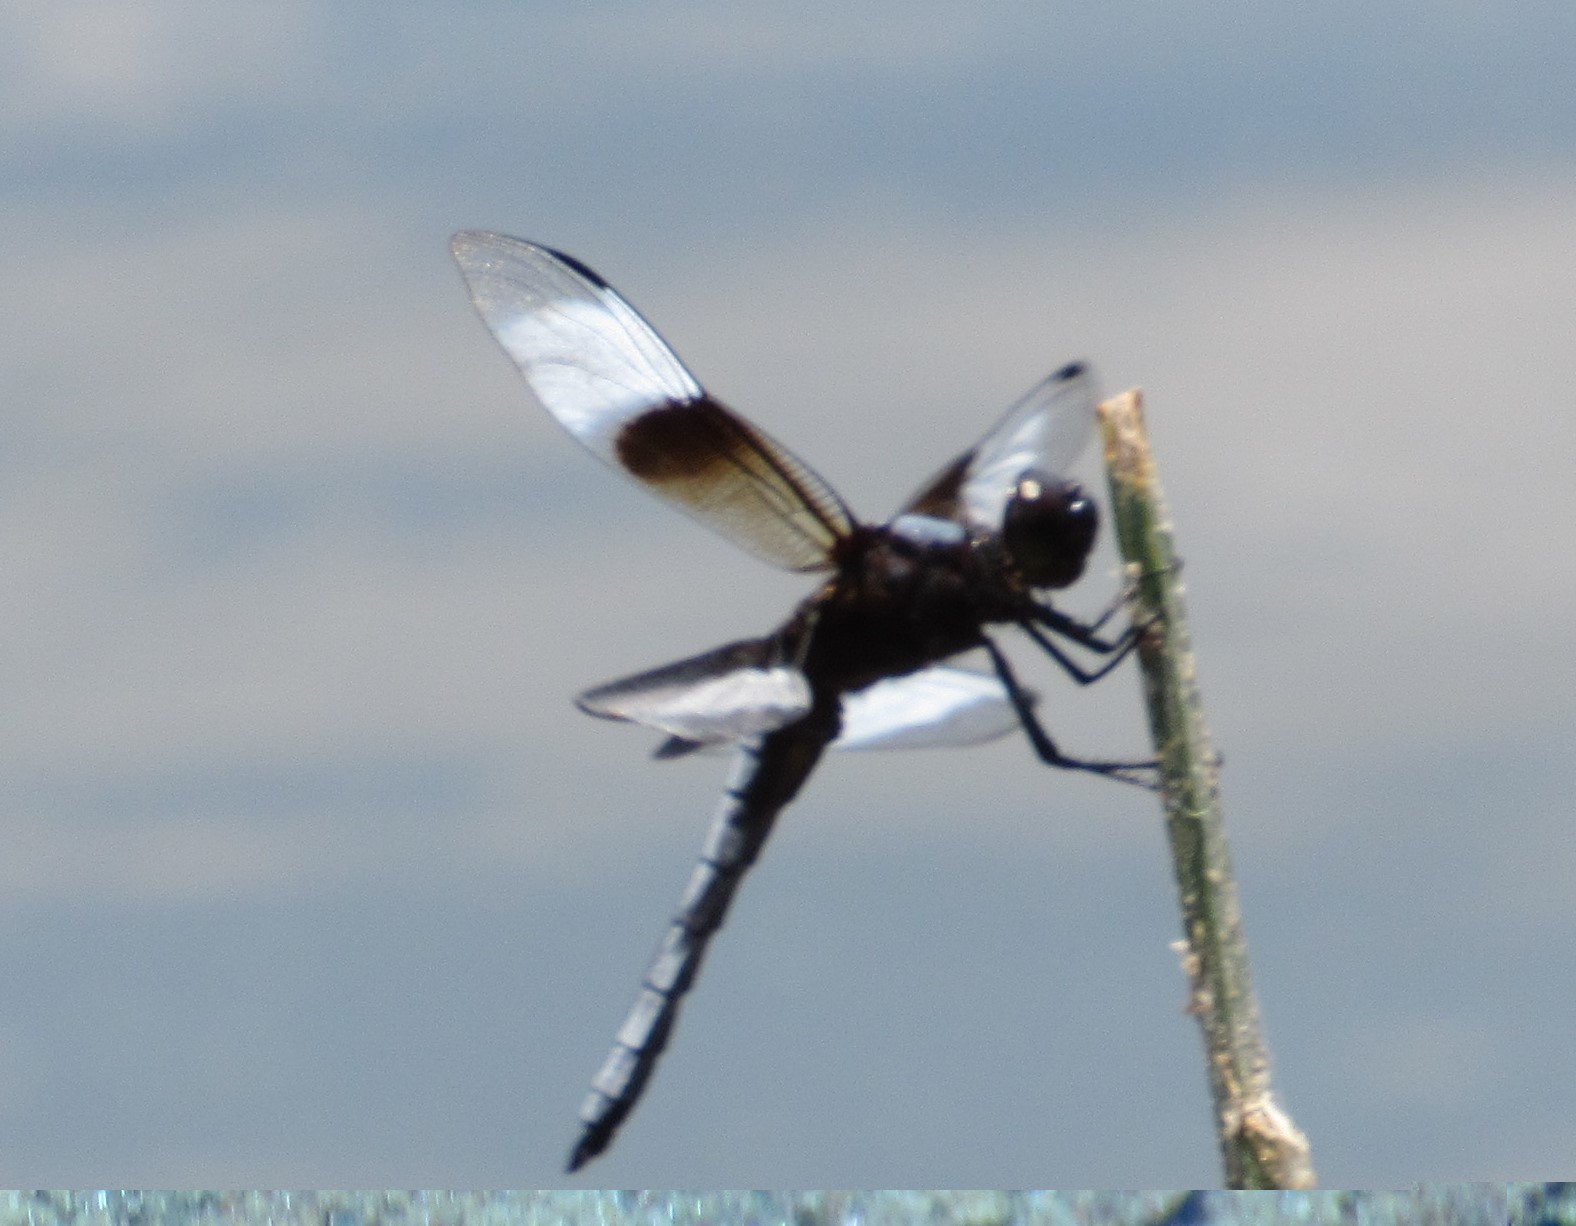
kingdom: Animalia
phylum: Arthropoda
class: Insecta
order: Odonata
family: Libellulidae
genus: Libellula
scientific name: Libellula luctuosa
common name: Widow skimmer
